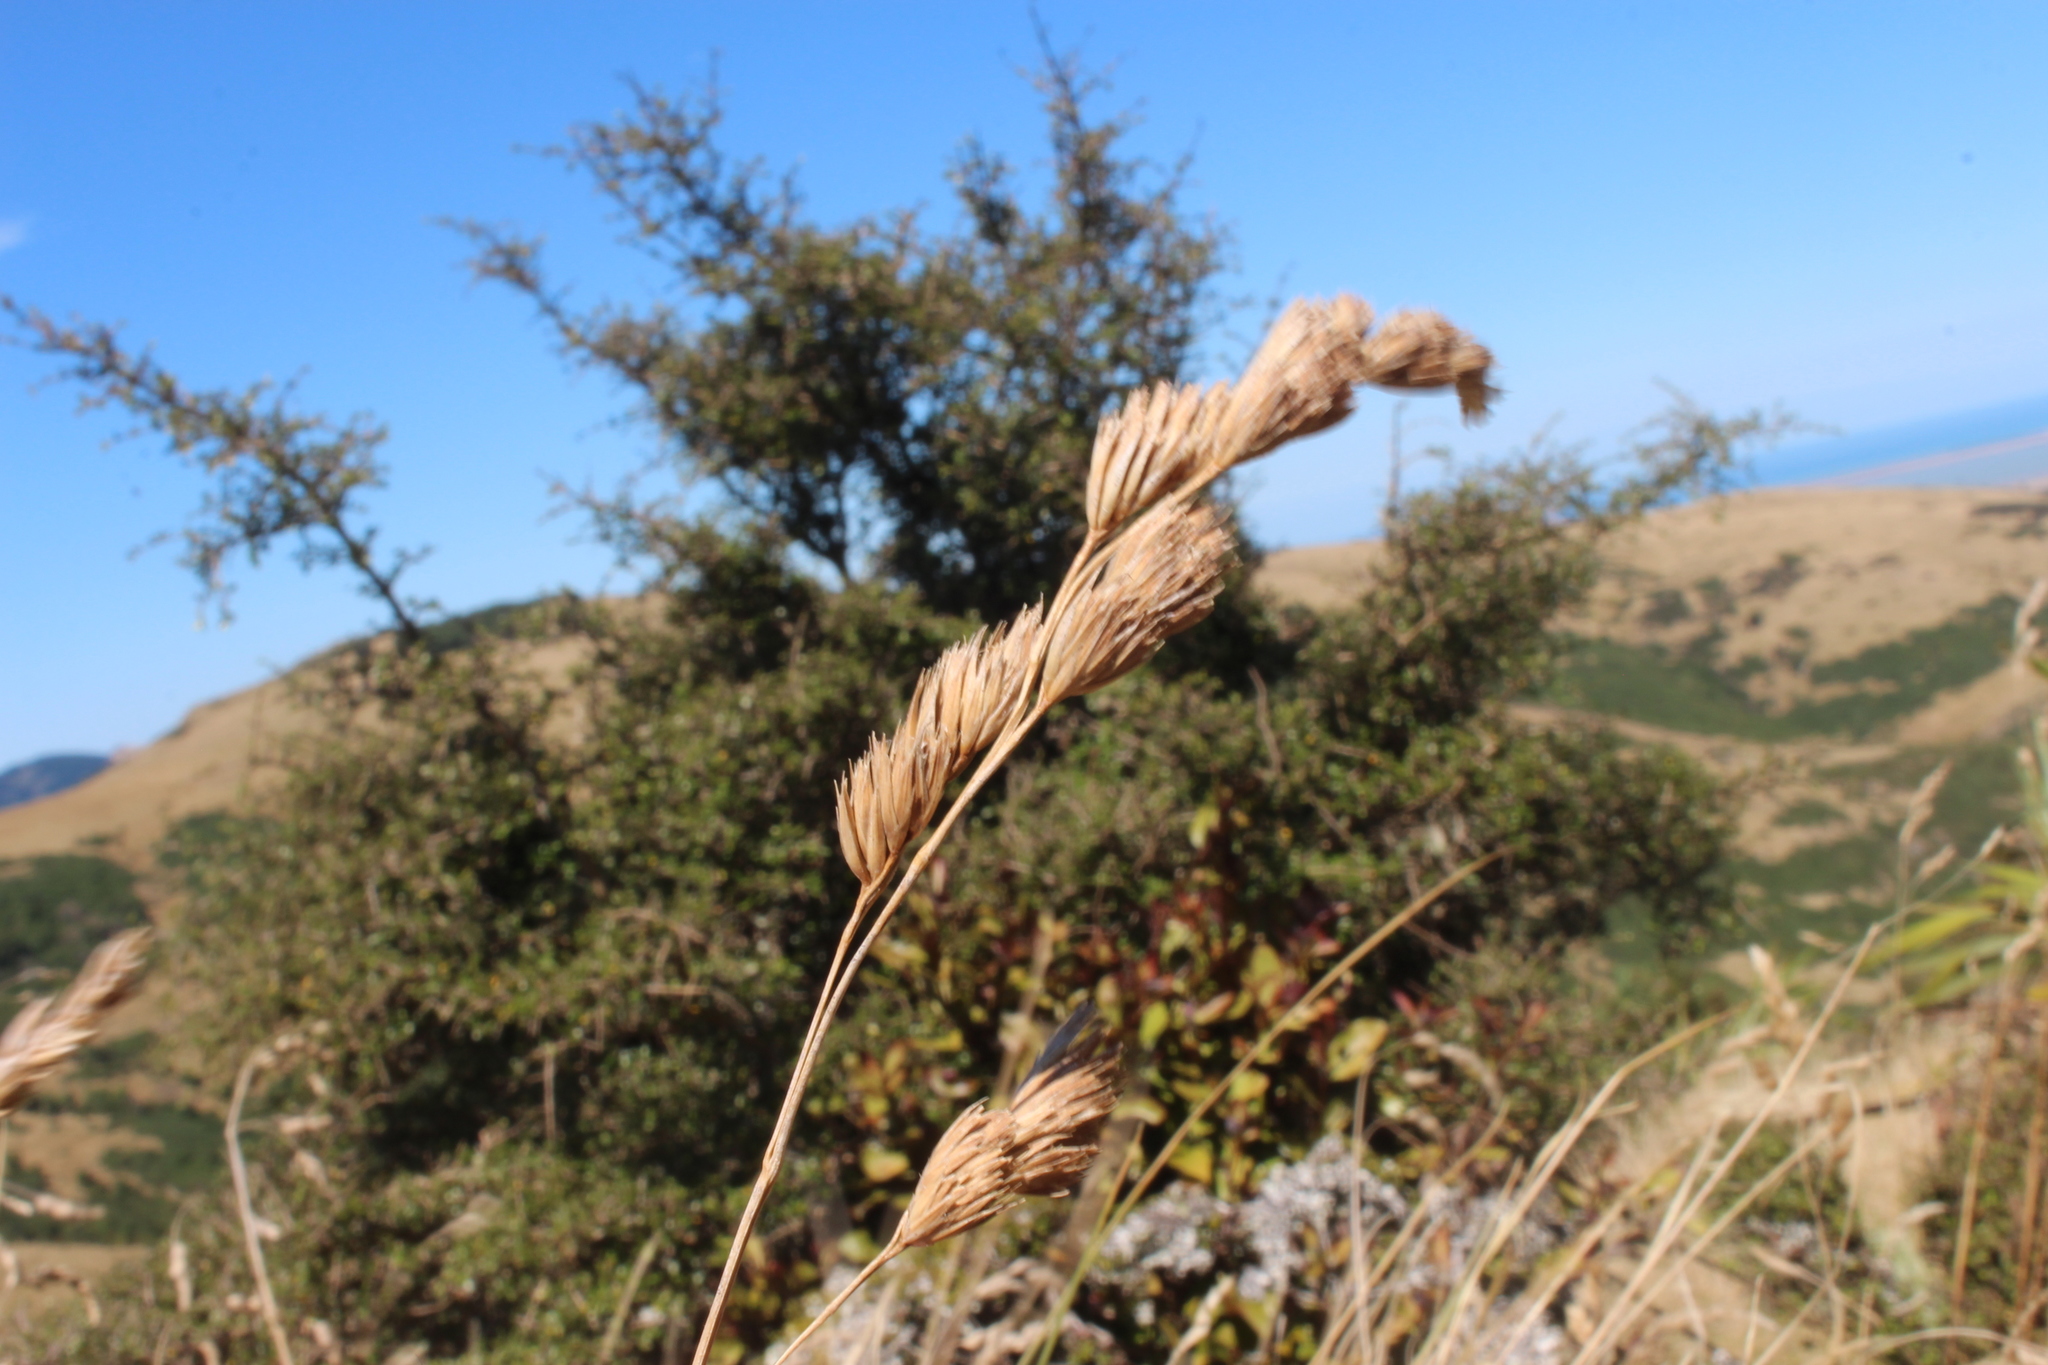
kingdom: Plantae
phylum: Tracheophyta
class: Liliopsida
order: Poales
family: Poaceae
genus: Dactylis
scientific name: Dactylis glomerata
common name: Orchardgrass
